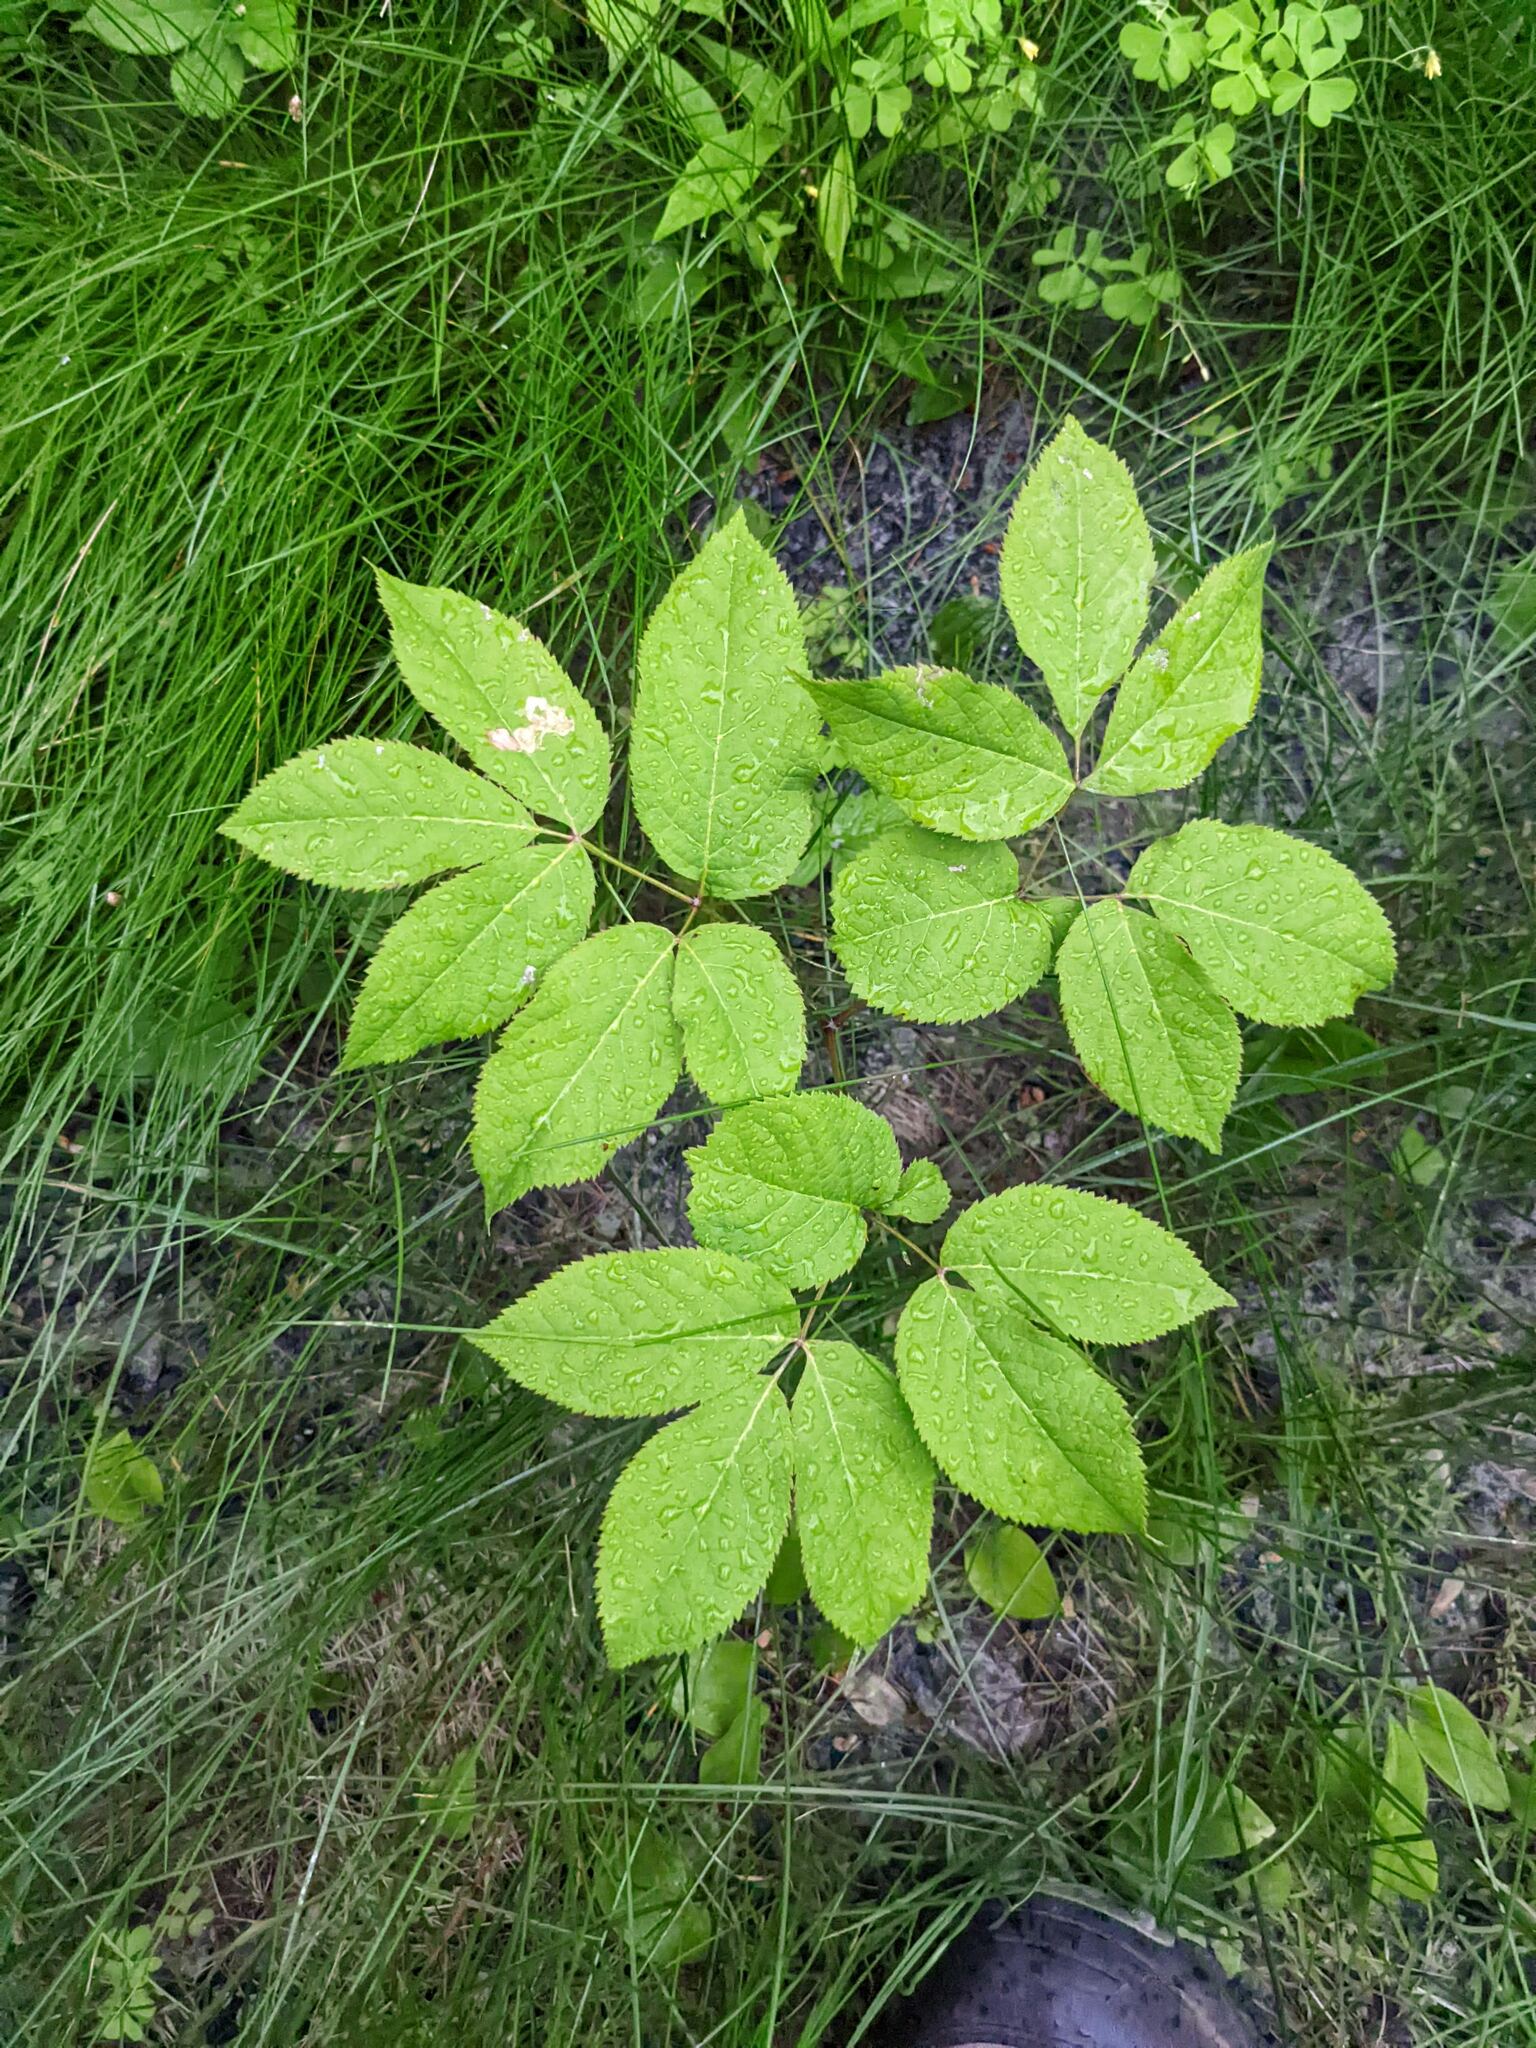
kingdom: Plantae
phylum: Tracheophyta
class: Magnoliopsida
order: Apiales
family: Araliaceae
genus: Aralia
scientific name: Aralia nudicaulis
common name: Wild sarsaparilla
